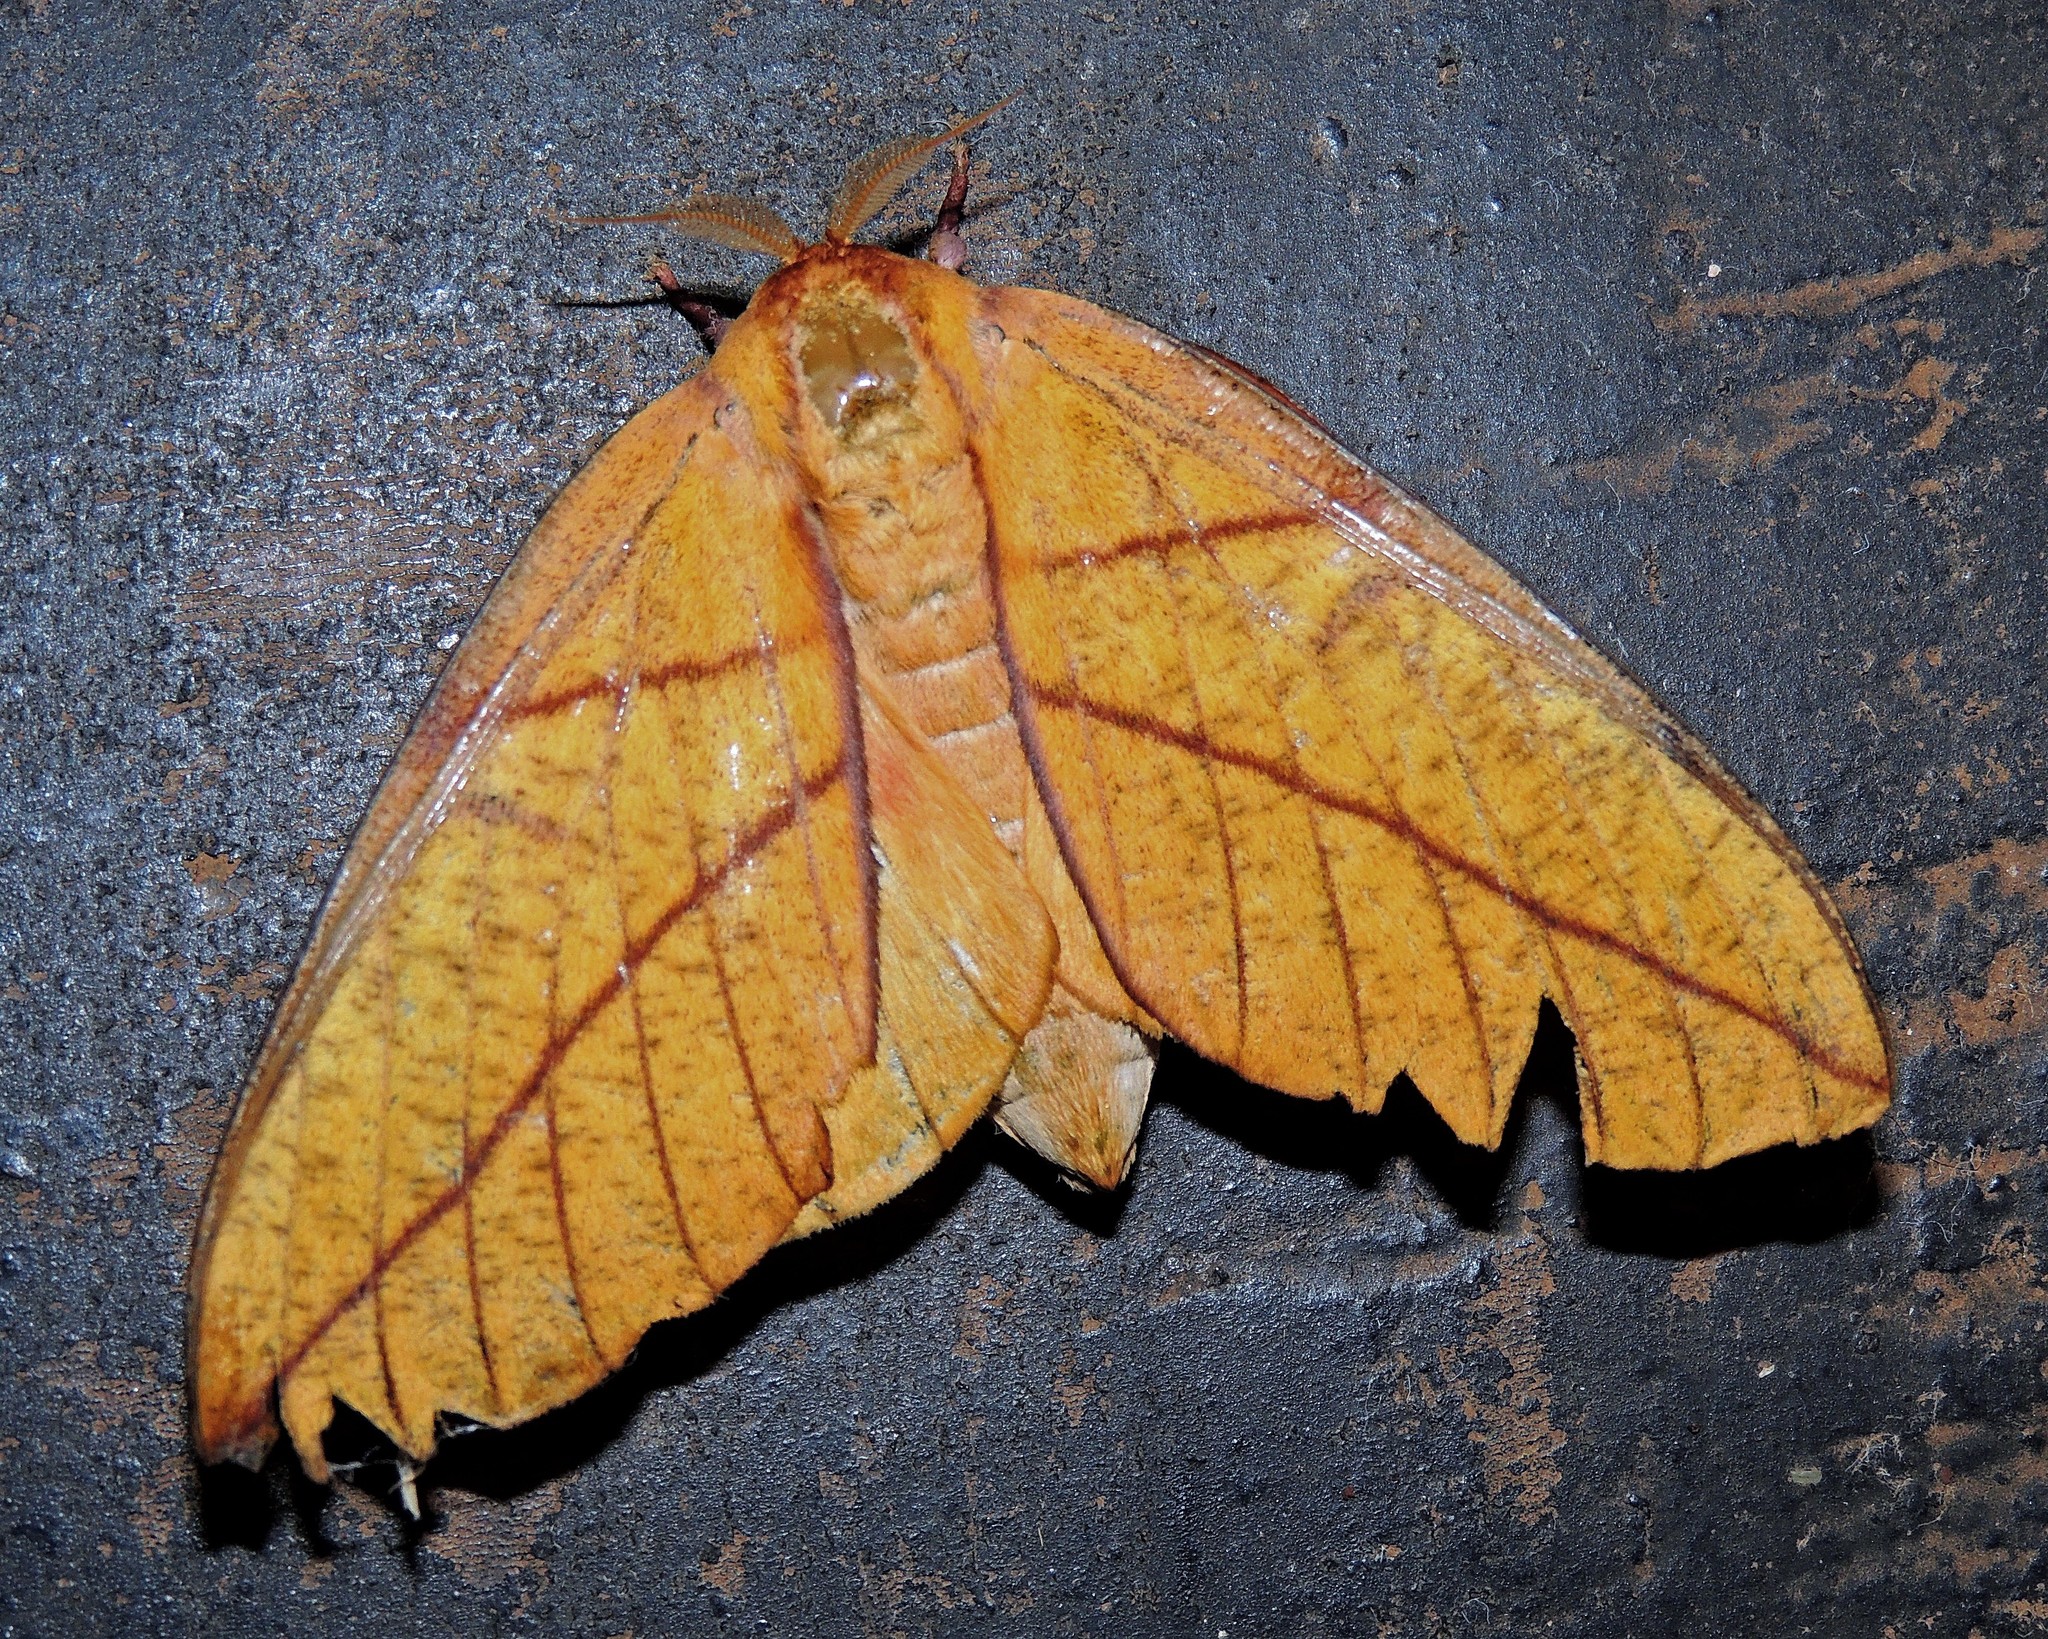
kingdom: Animalia
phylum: Arthropoda
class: Insecta
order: Lepidoptera
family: Saturniidae
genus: Adeloneivaia
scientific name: Adeloneivaia fallax
